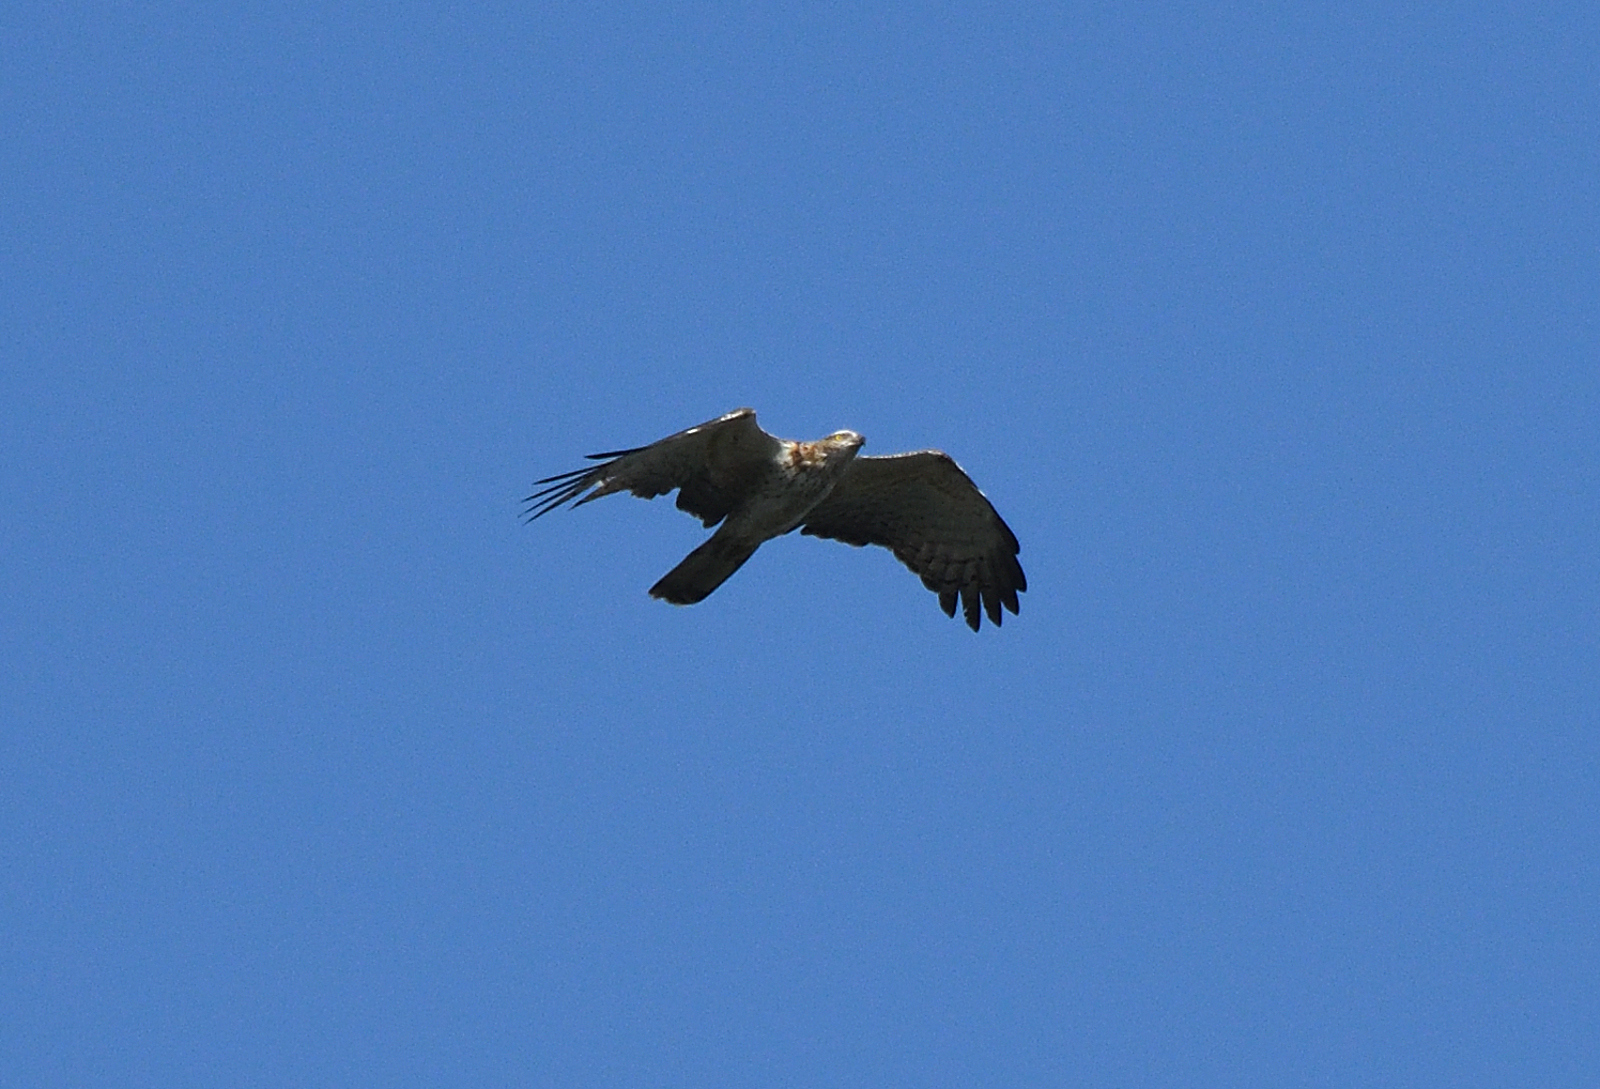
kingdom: Animalia
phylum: Chordata
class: Aves
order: Accipitriformes
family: Accipitridae
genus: Pernis
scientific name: Pernis ptilorhynchus
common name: Crested honey buzzard
